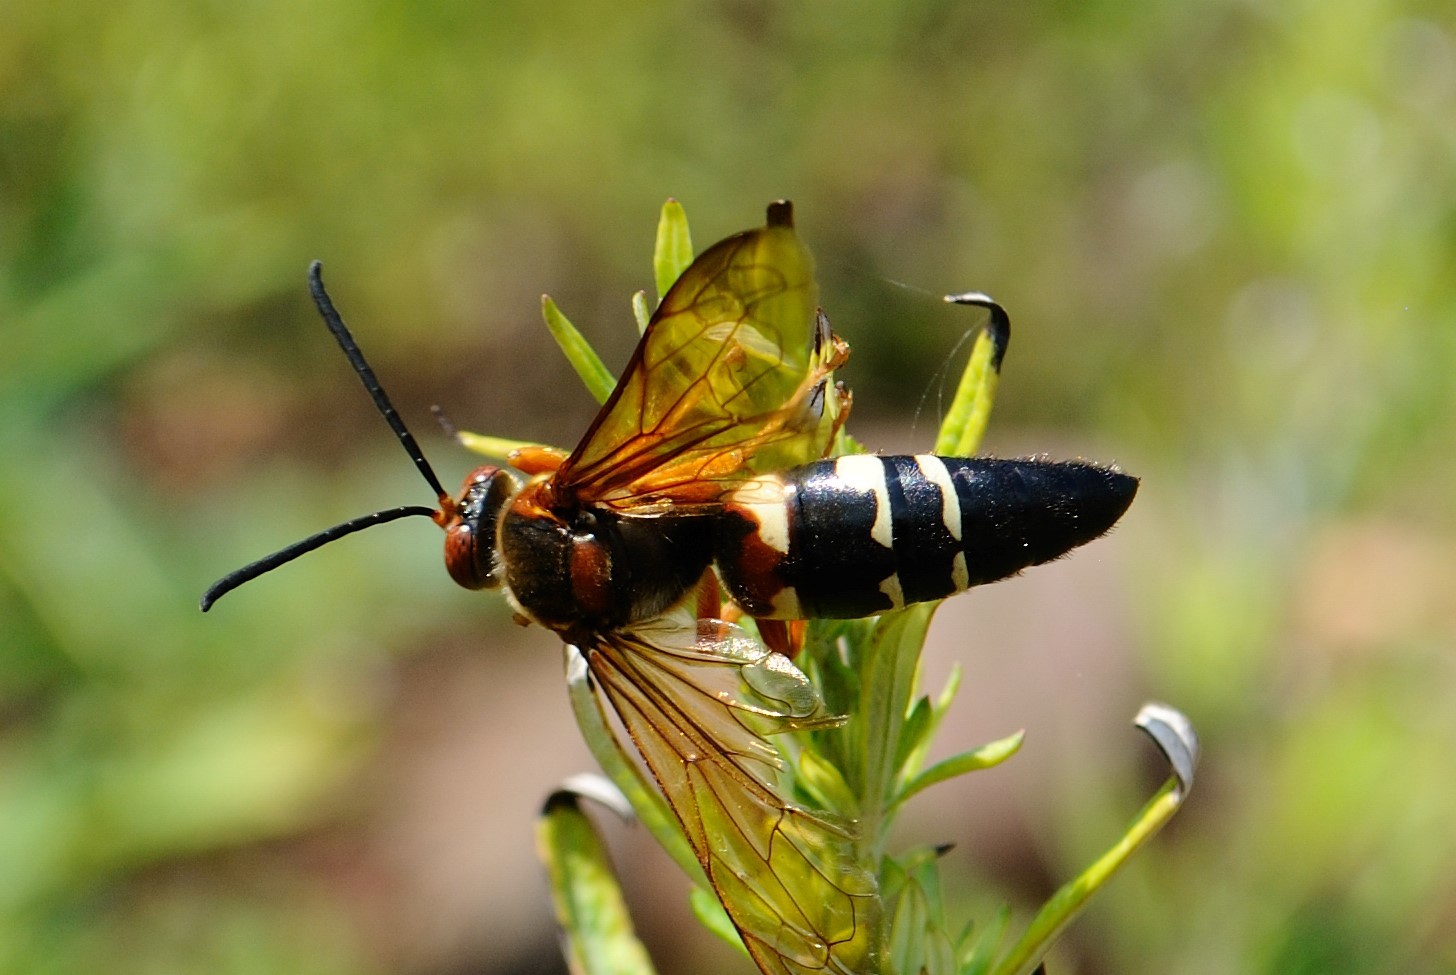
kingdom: Animalia
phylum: Arthropoda
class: Insecta
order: Hymenoptera
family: Crabronidae
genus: Sphecius
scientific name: Sphecius speciosus
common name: Cicada killer
